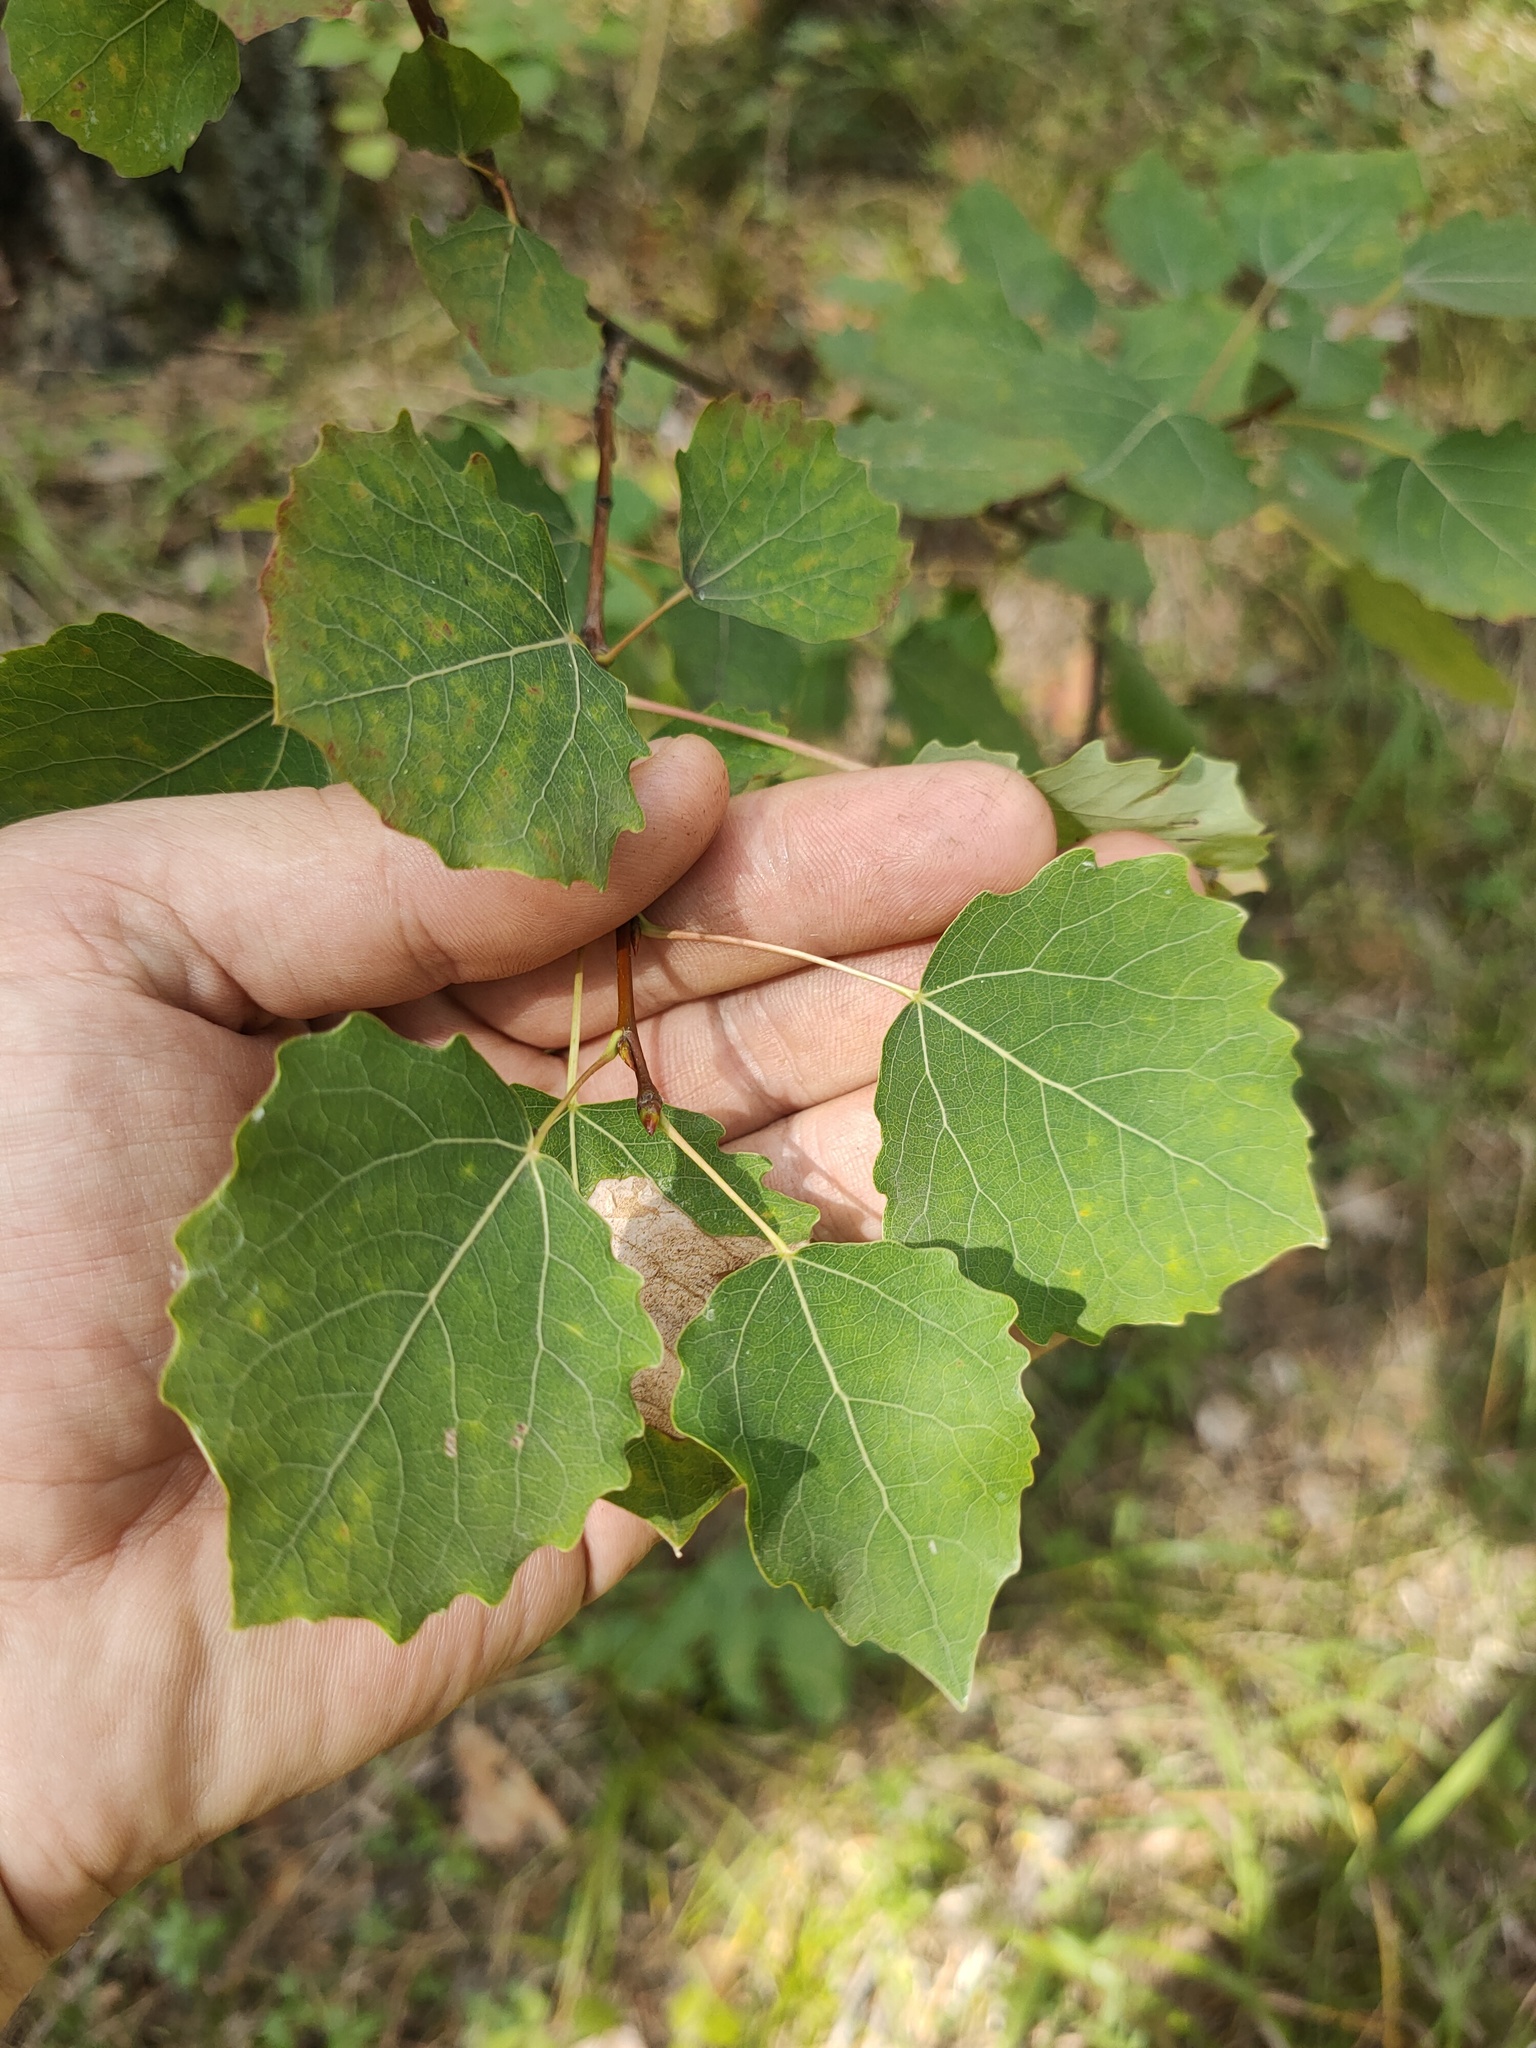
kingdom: Plantae
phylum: Tracheophyta
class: Magnoliopsida
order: Malpighiales
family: Salicaceae
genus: Populus
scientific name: Populus tremula
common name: European aspen
